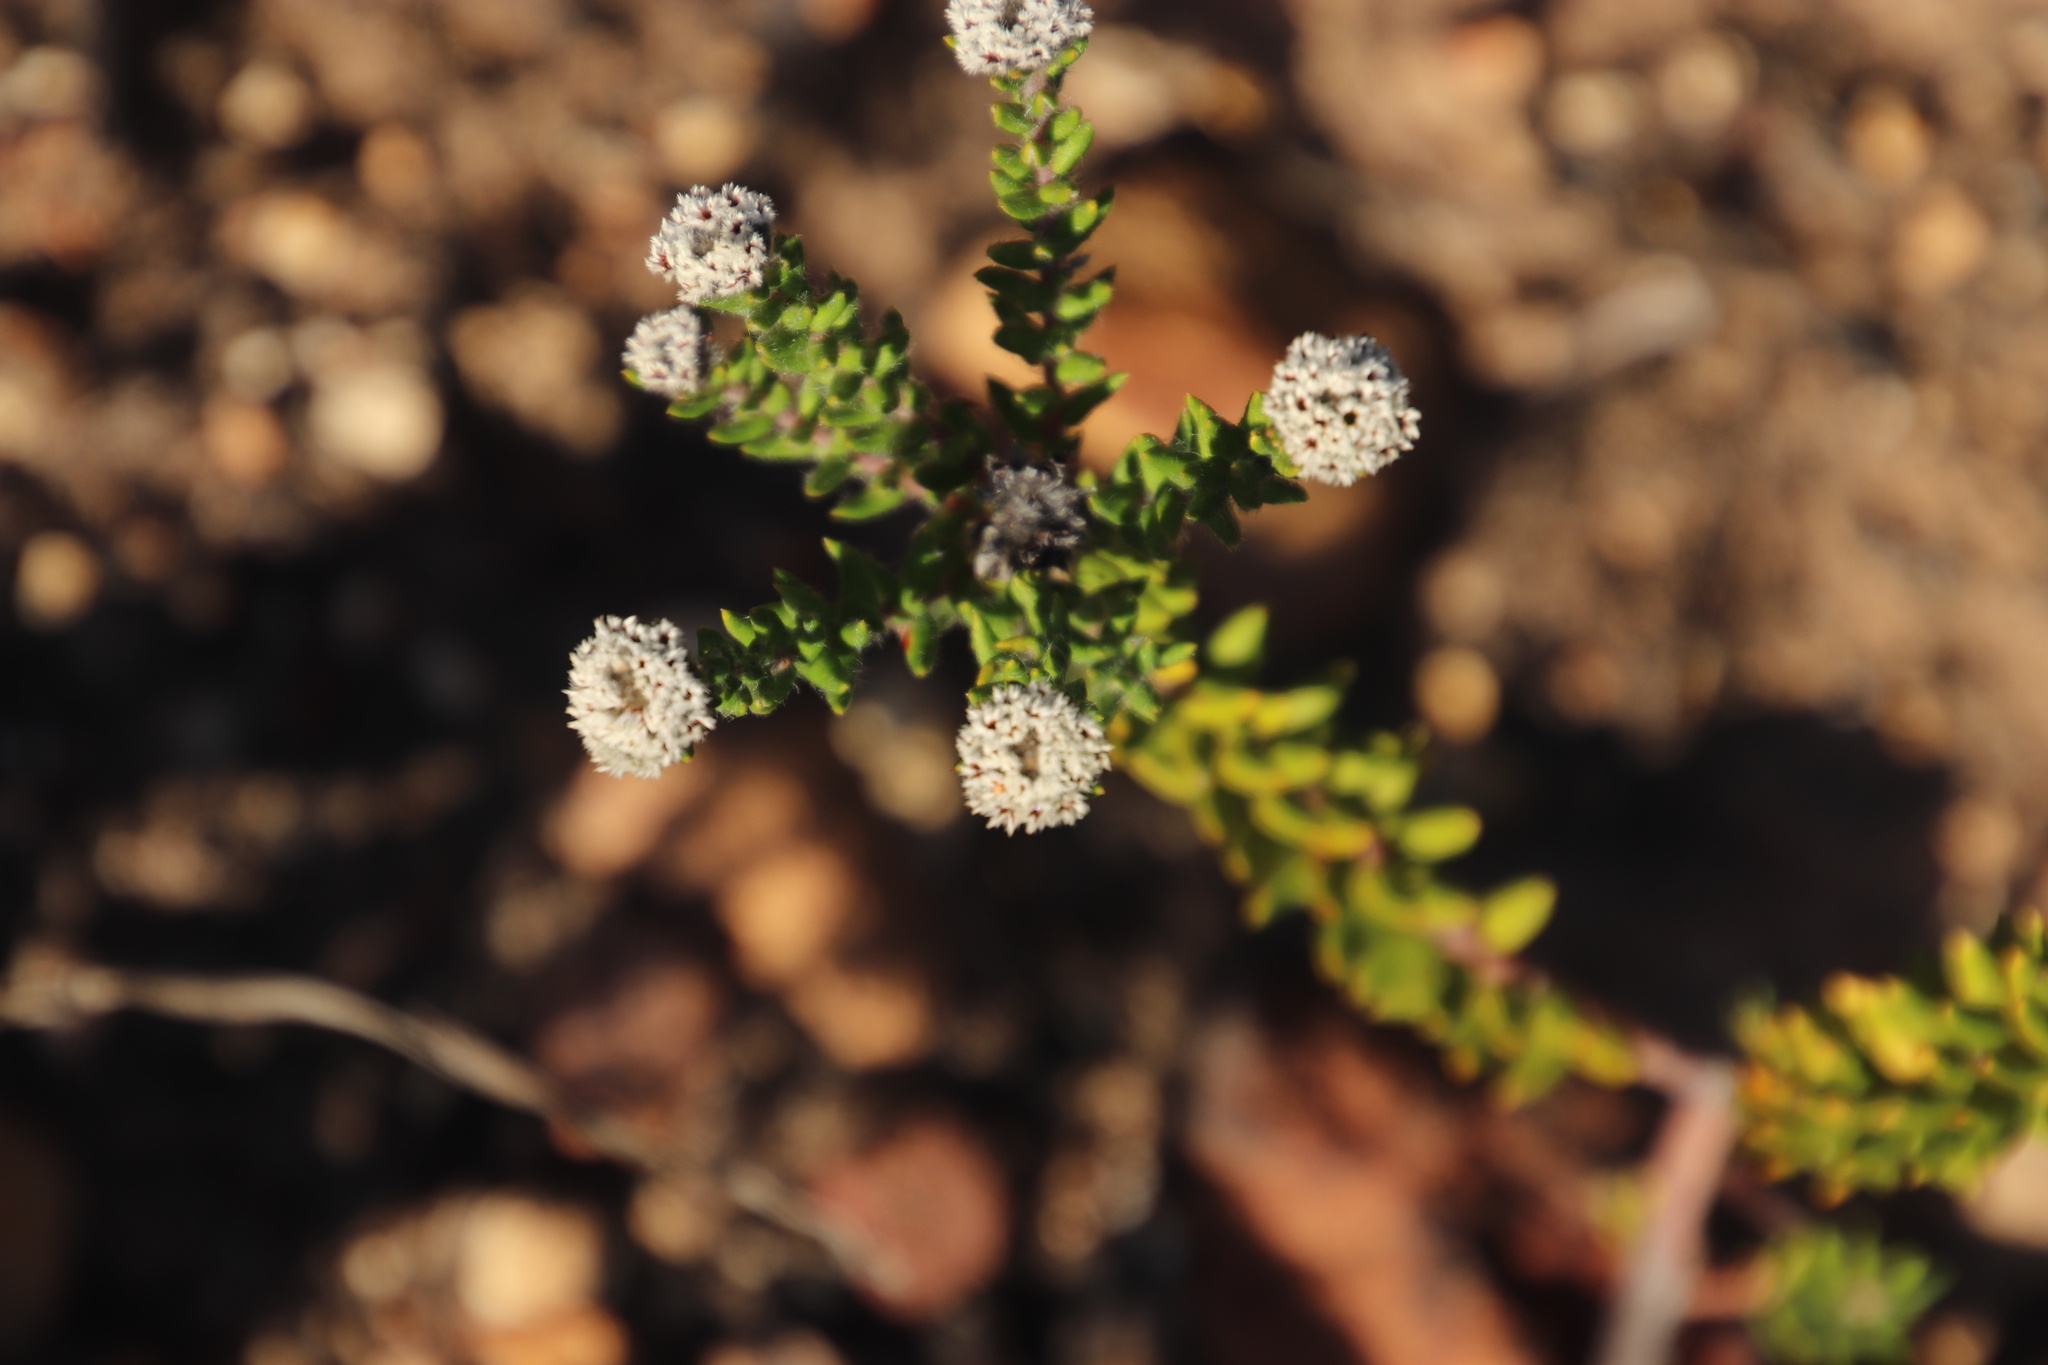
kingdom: Plantae
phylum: Tracheophyta
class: Magnoliopsida
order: Rosales
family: Rhamnaceae
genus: Phylica
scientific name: Phylica callosa
